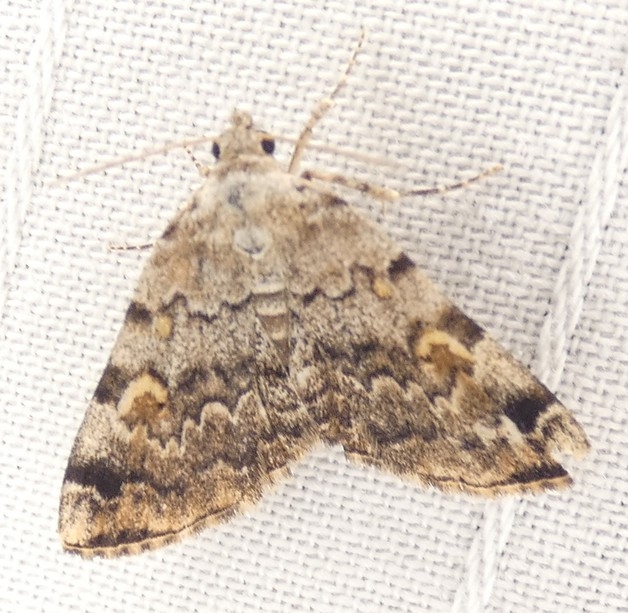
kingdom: Animalia
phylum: Arthropoda
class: Insecta
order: Lepidoptera
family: Erebidae
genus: Idia
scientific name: Idia americalis
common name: American idia moth
